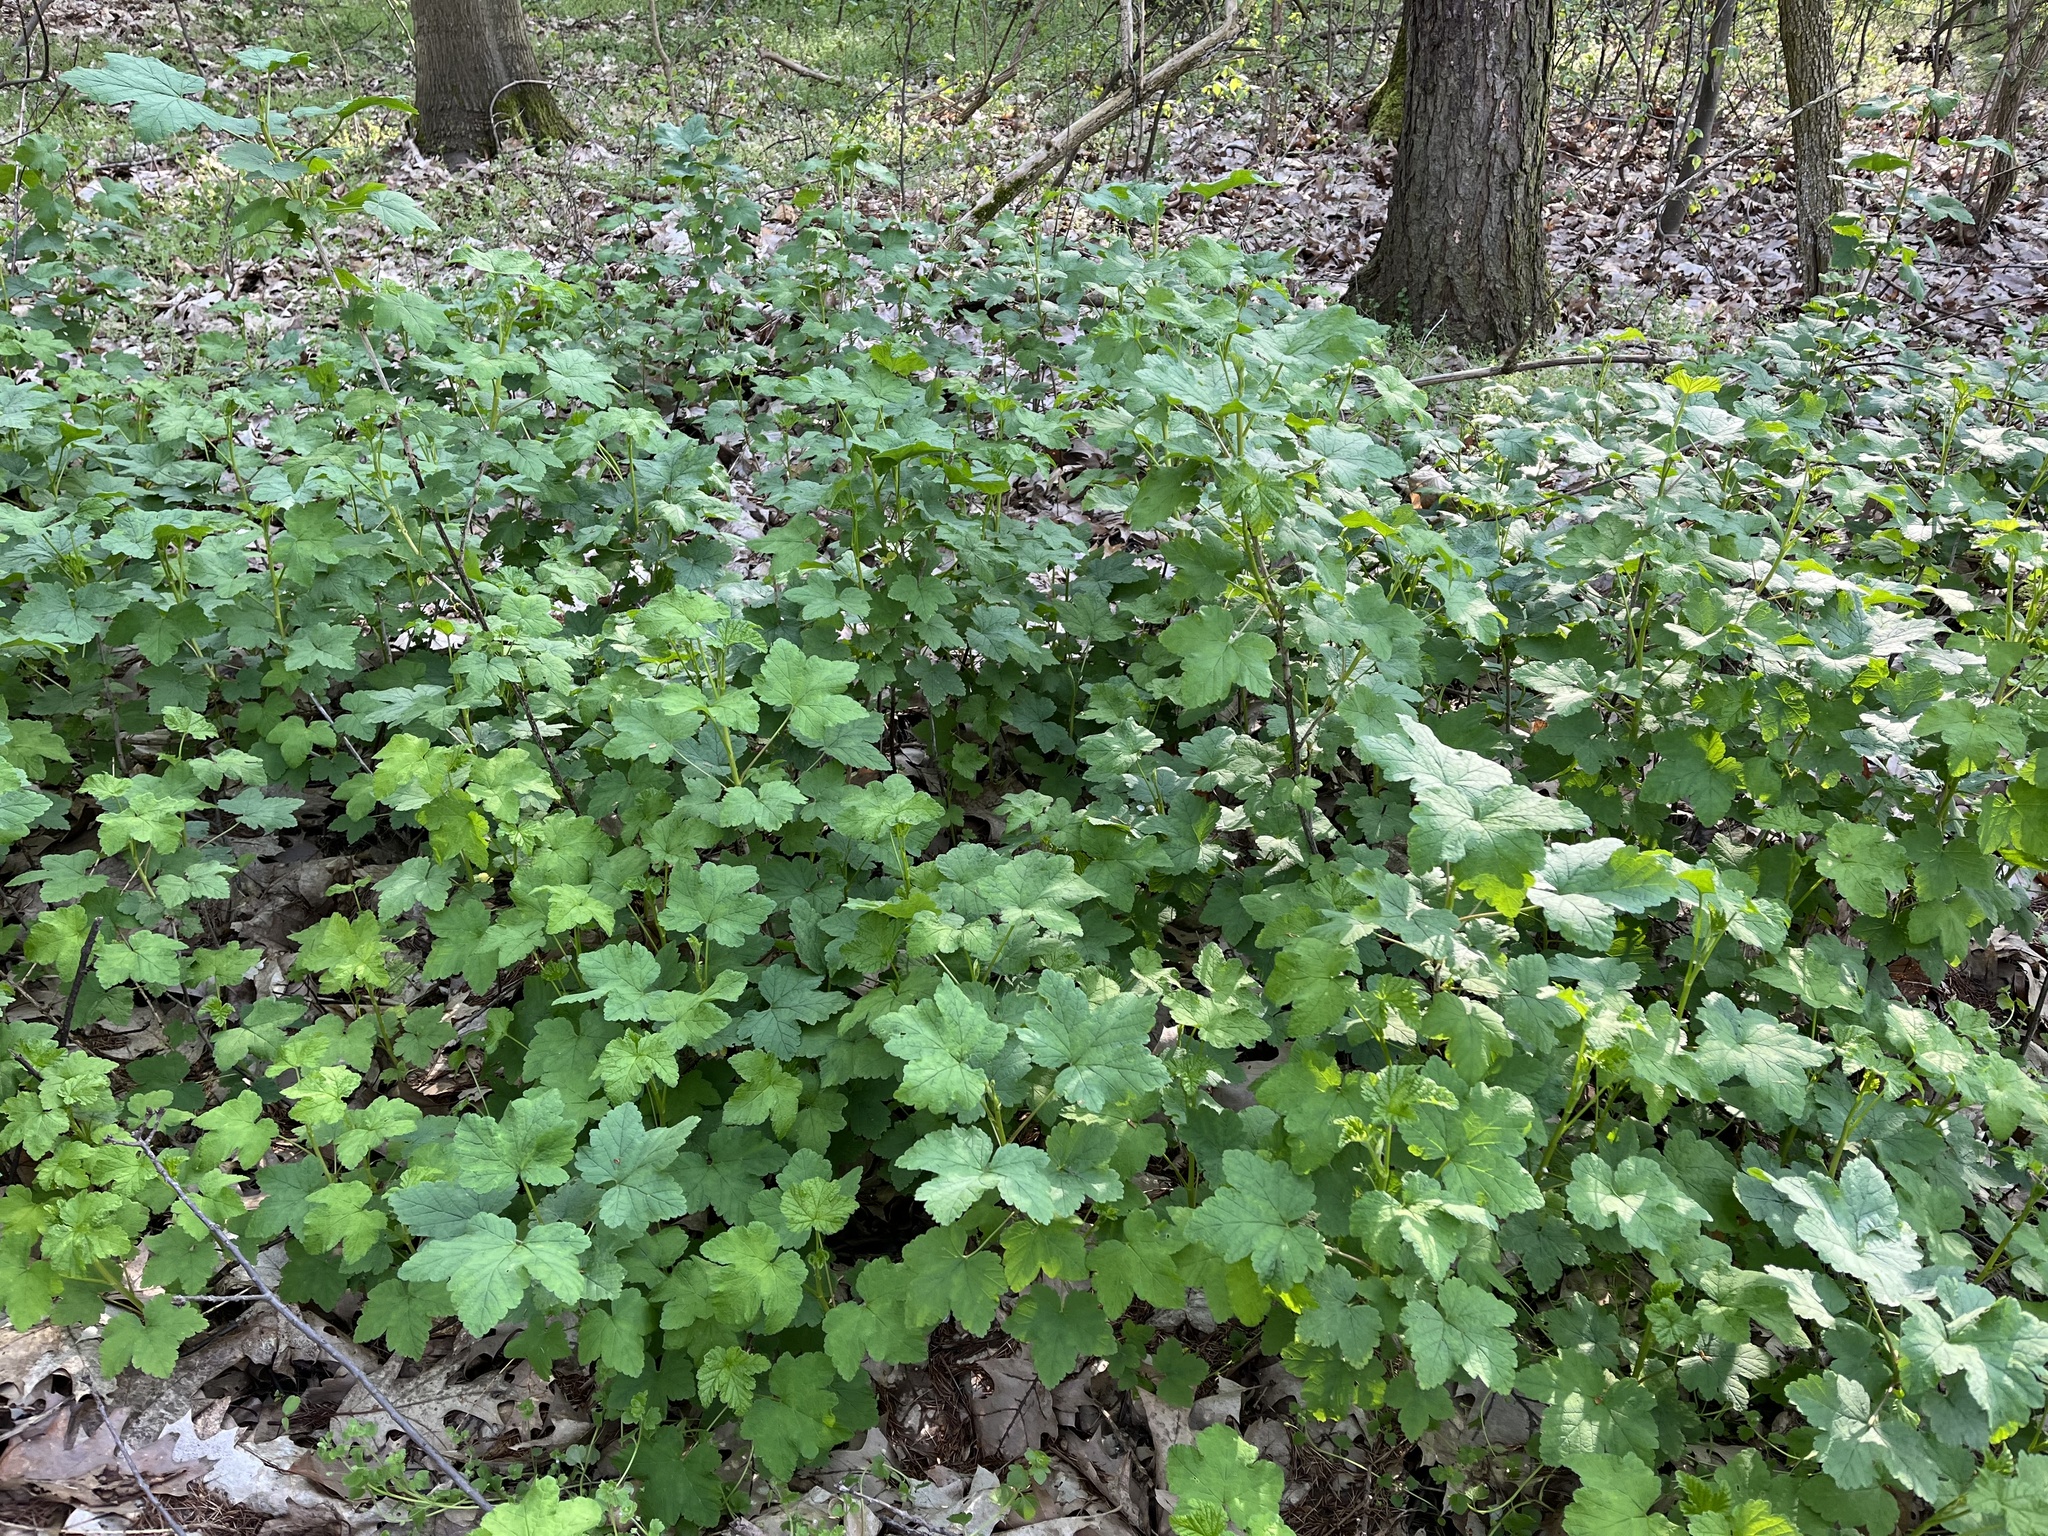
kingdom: Plantae
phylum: Tracheophyta
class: Magnoliopsida
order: Saxifragales
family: Grossulariaceae
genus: Ribes
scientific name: Ribes rubrum
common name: Red currant
